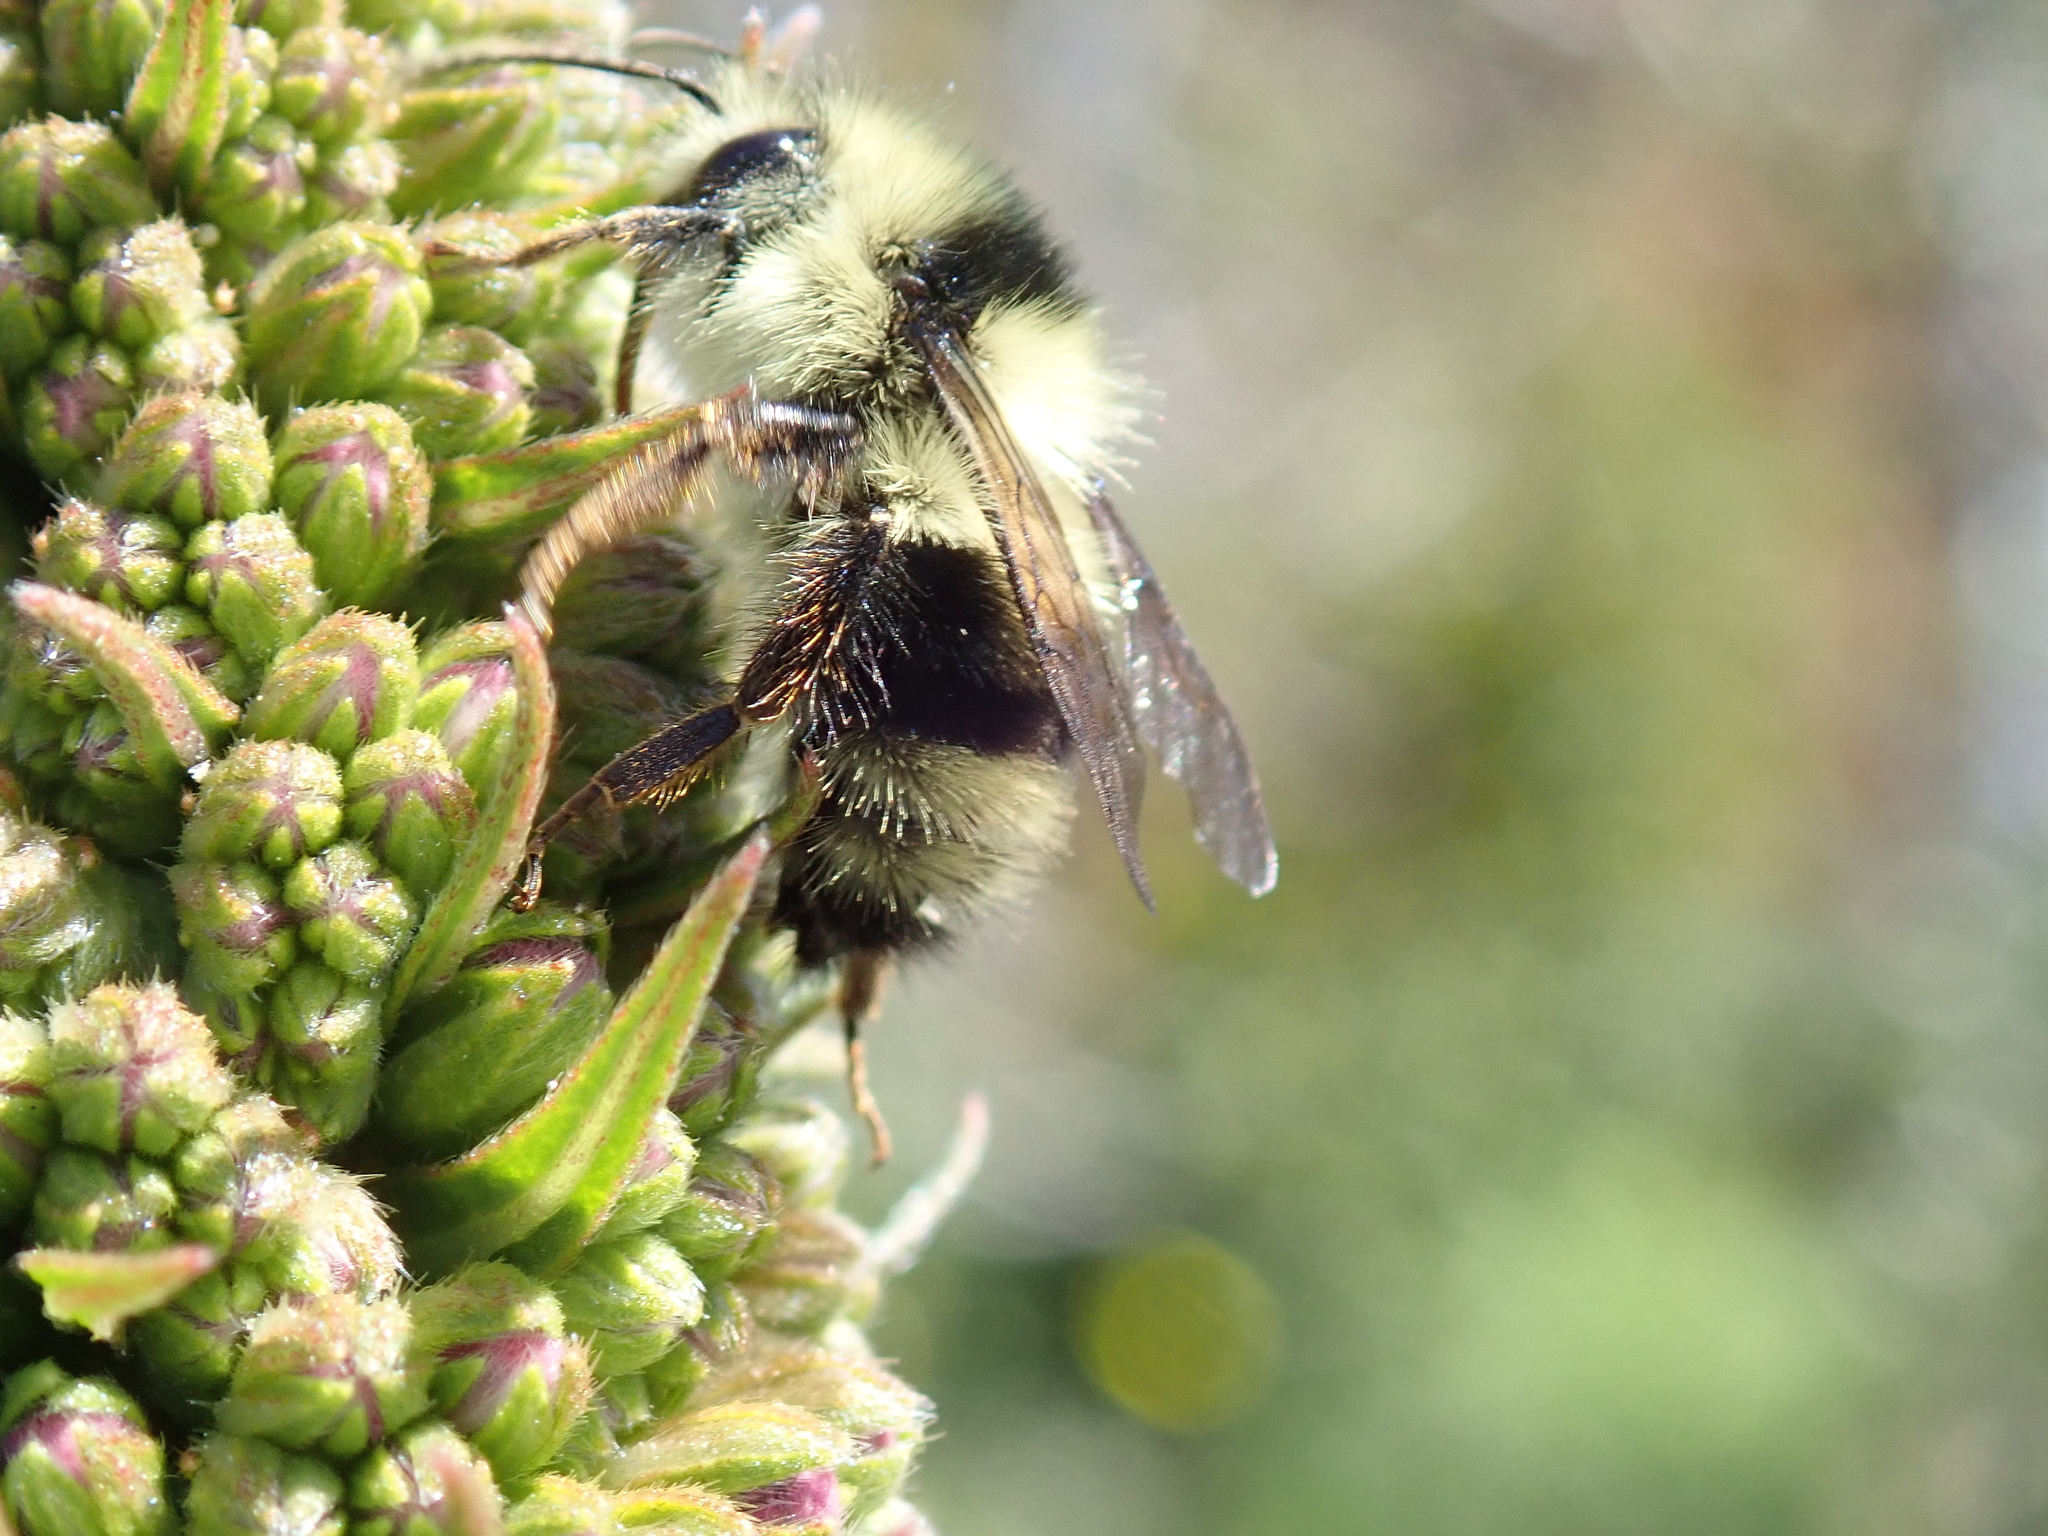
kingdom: Animalia
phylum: Arthropoda
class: Insecta
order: Hymenoptera
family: Apidae
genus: Bombus
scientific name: Bombus melanopygus
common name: Black tail bumble bee
